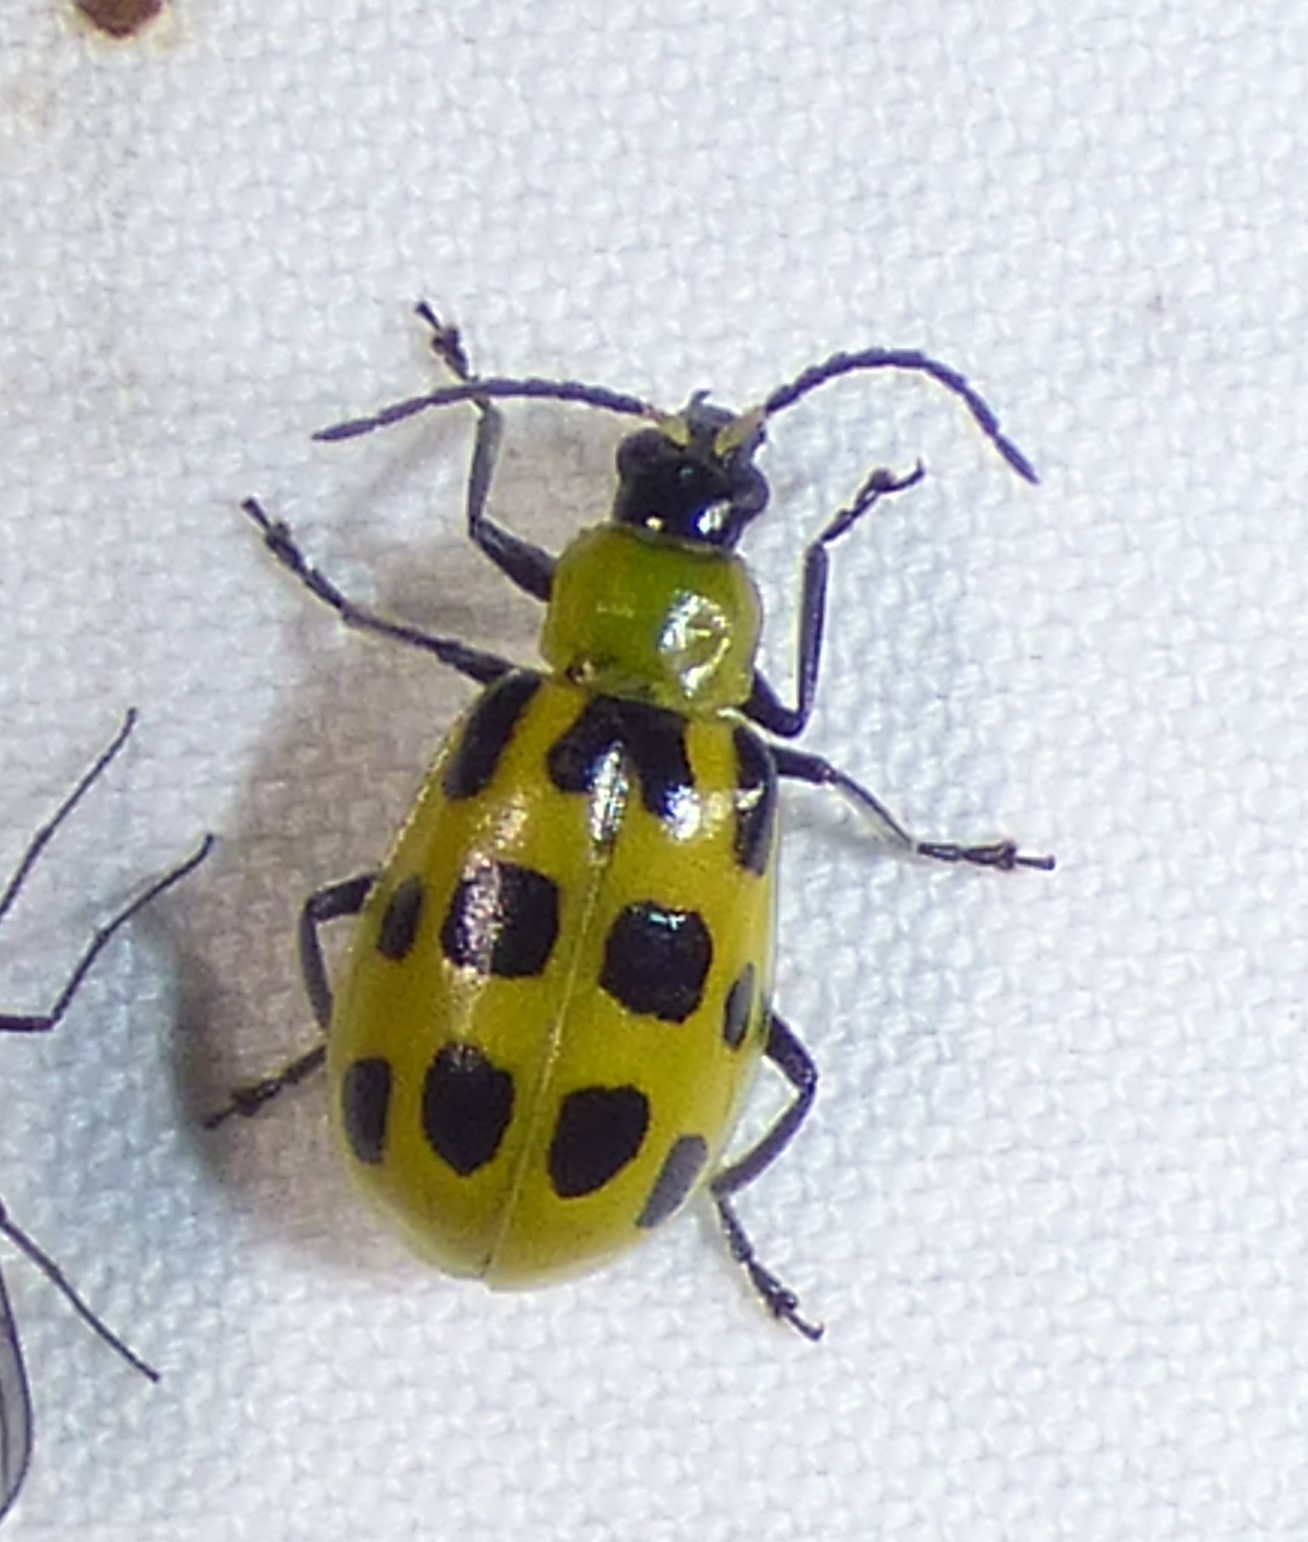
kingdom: Animalia
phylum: Arthropoda
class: Insecta
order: Coleoptera
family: Chrysomelidae
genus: Diabrotica
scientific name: Diabrotica undecimpunctata
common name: Spotted cucumber beetle
